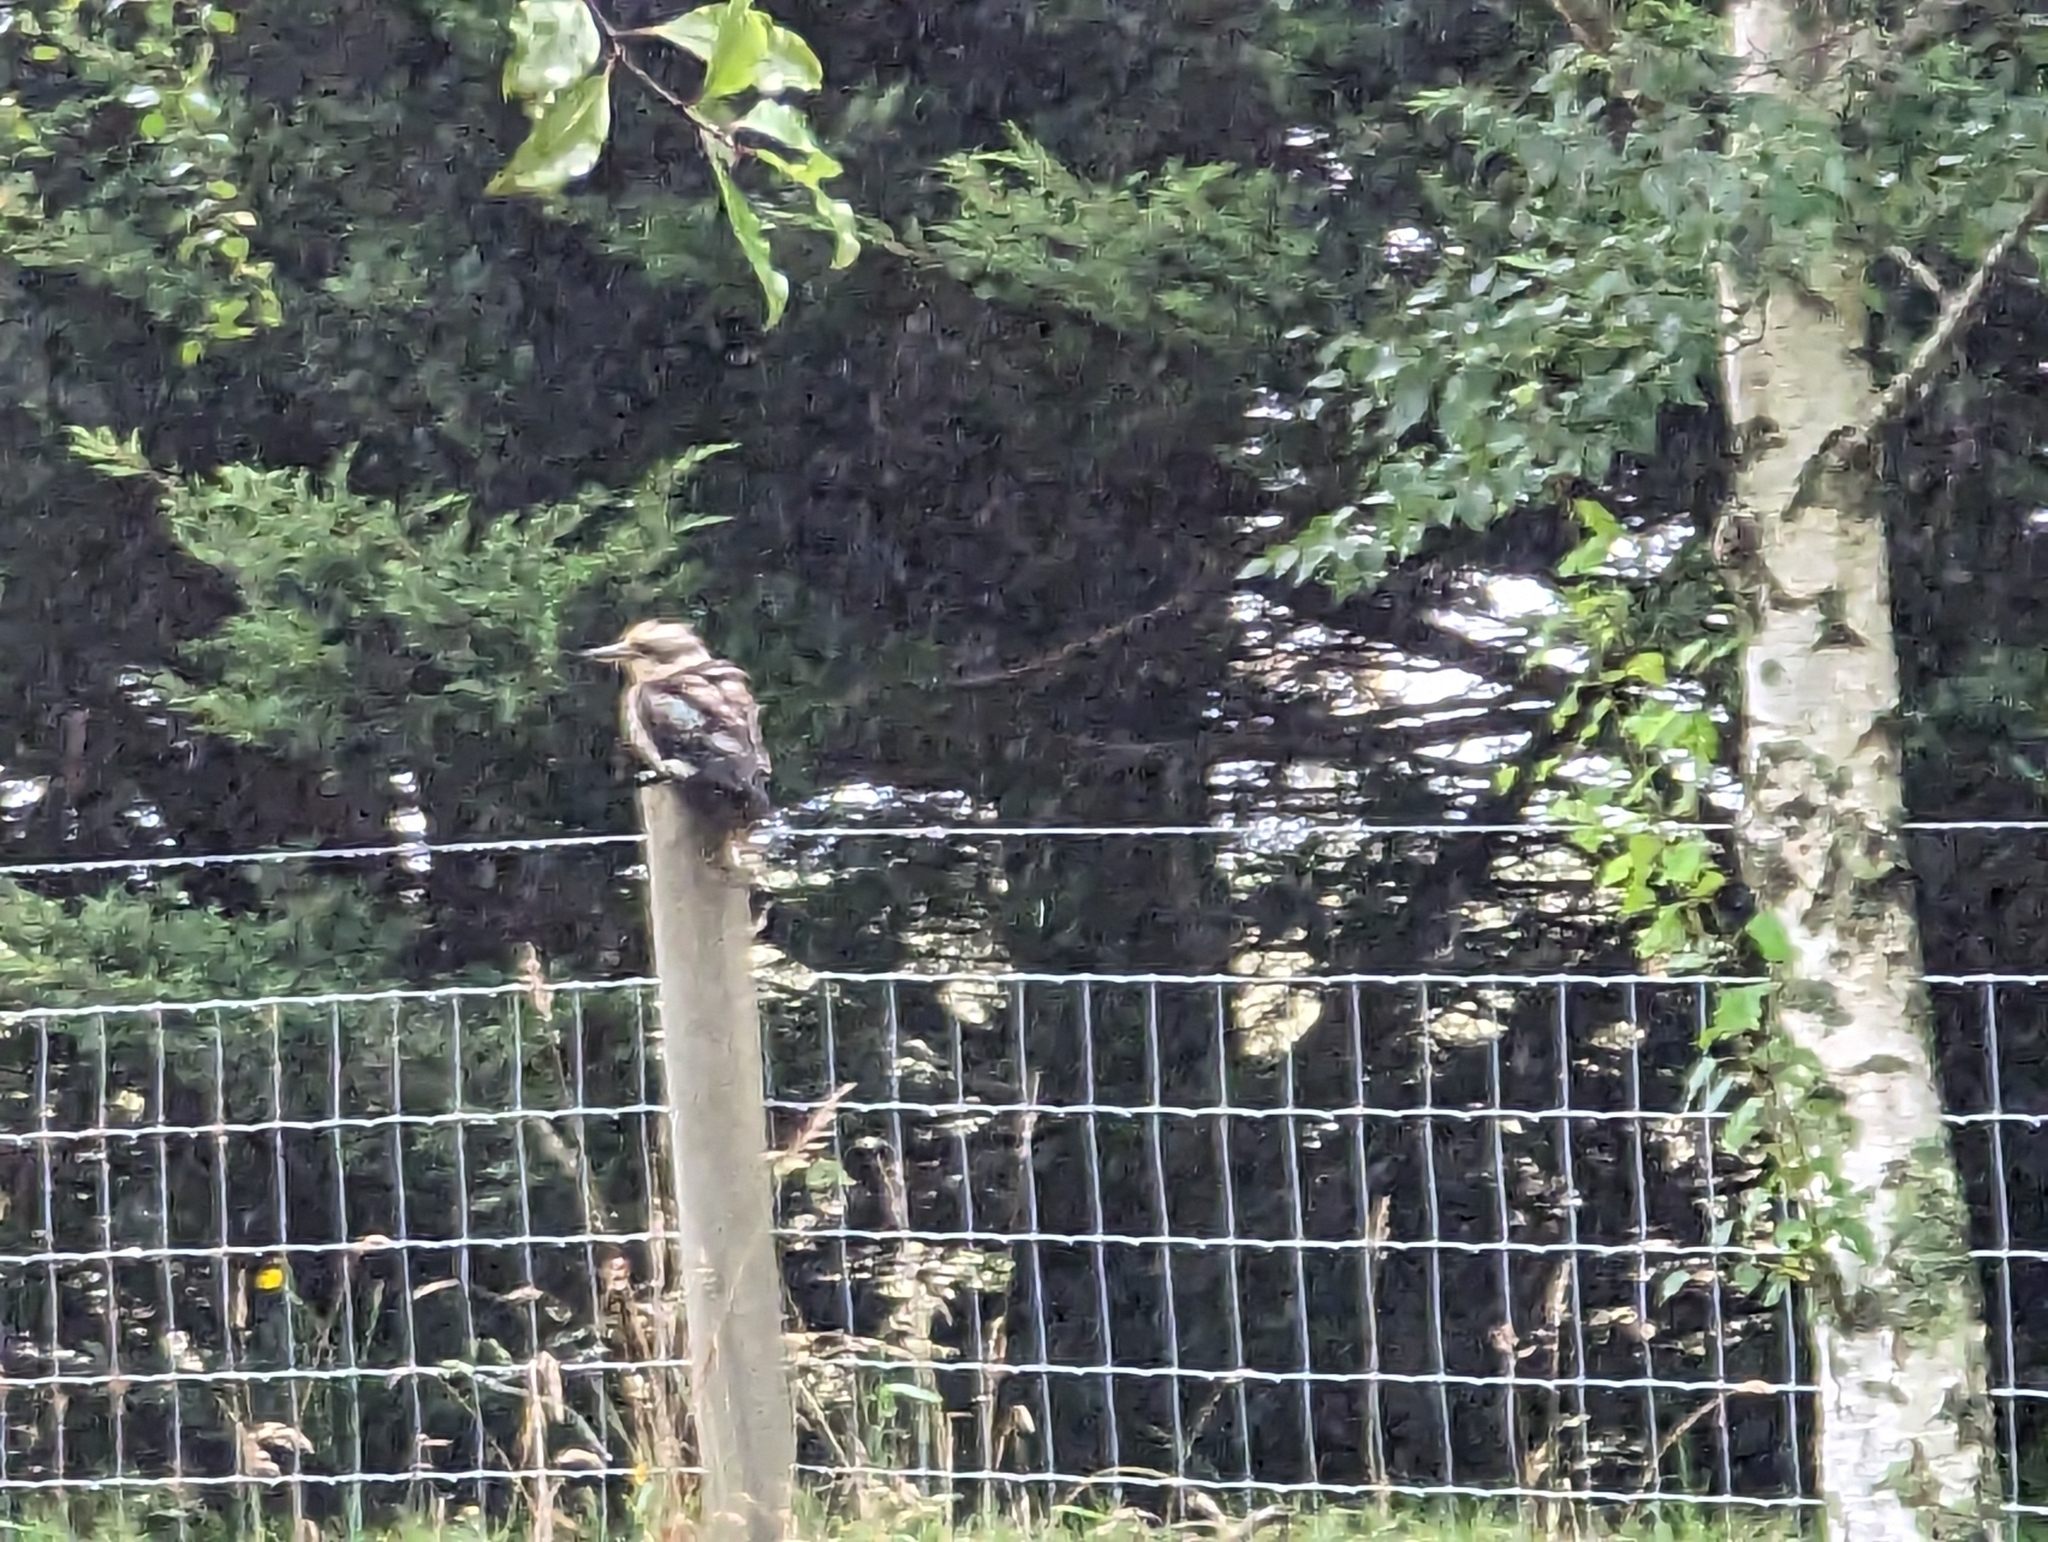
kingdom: Animalia
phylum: Chordata
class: Aves
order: Coraciiformes
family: Alcedinidae
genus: Dacelo
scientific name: Dacelo novaeguineae
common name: Laughing kookaburra
